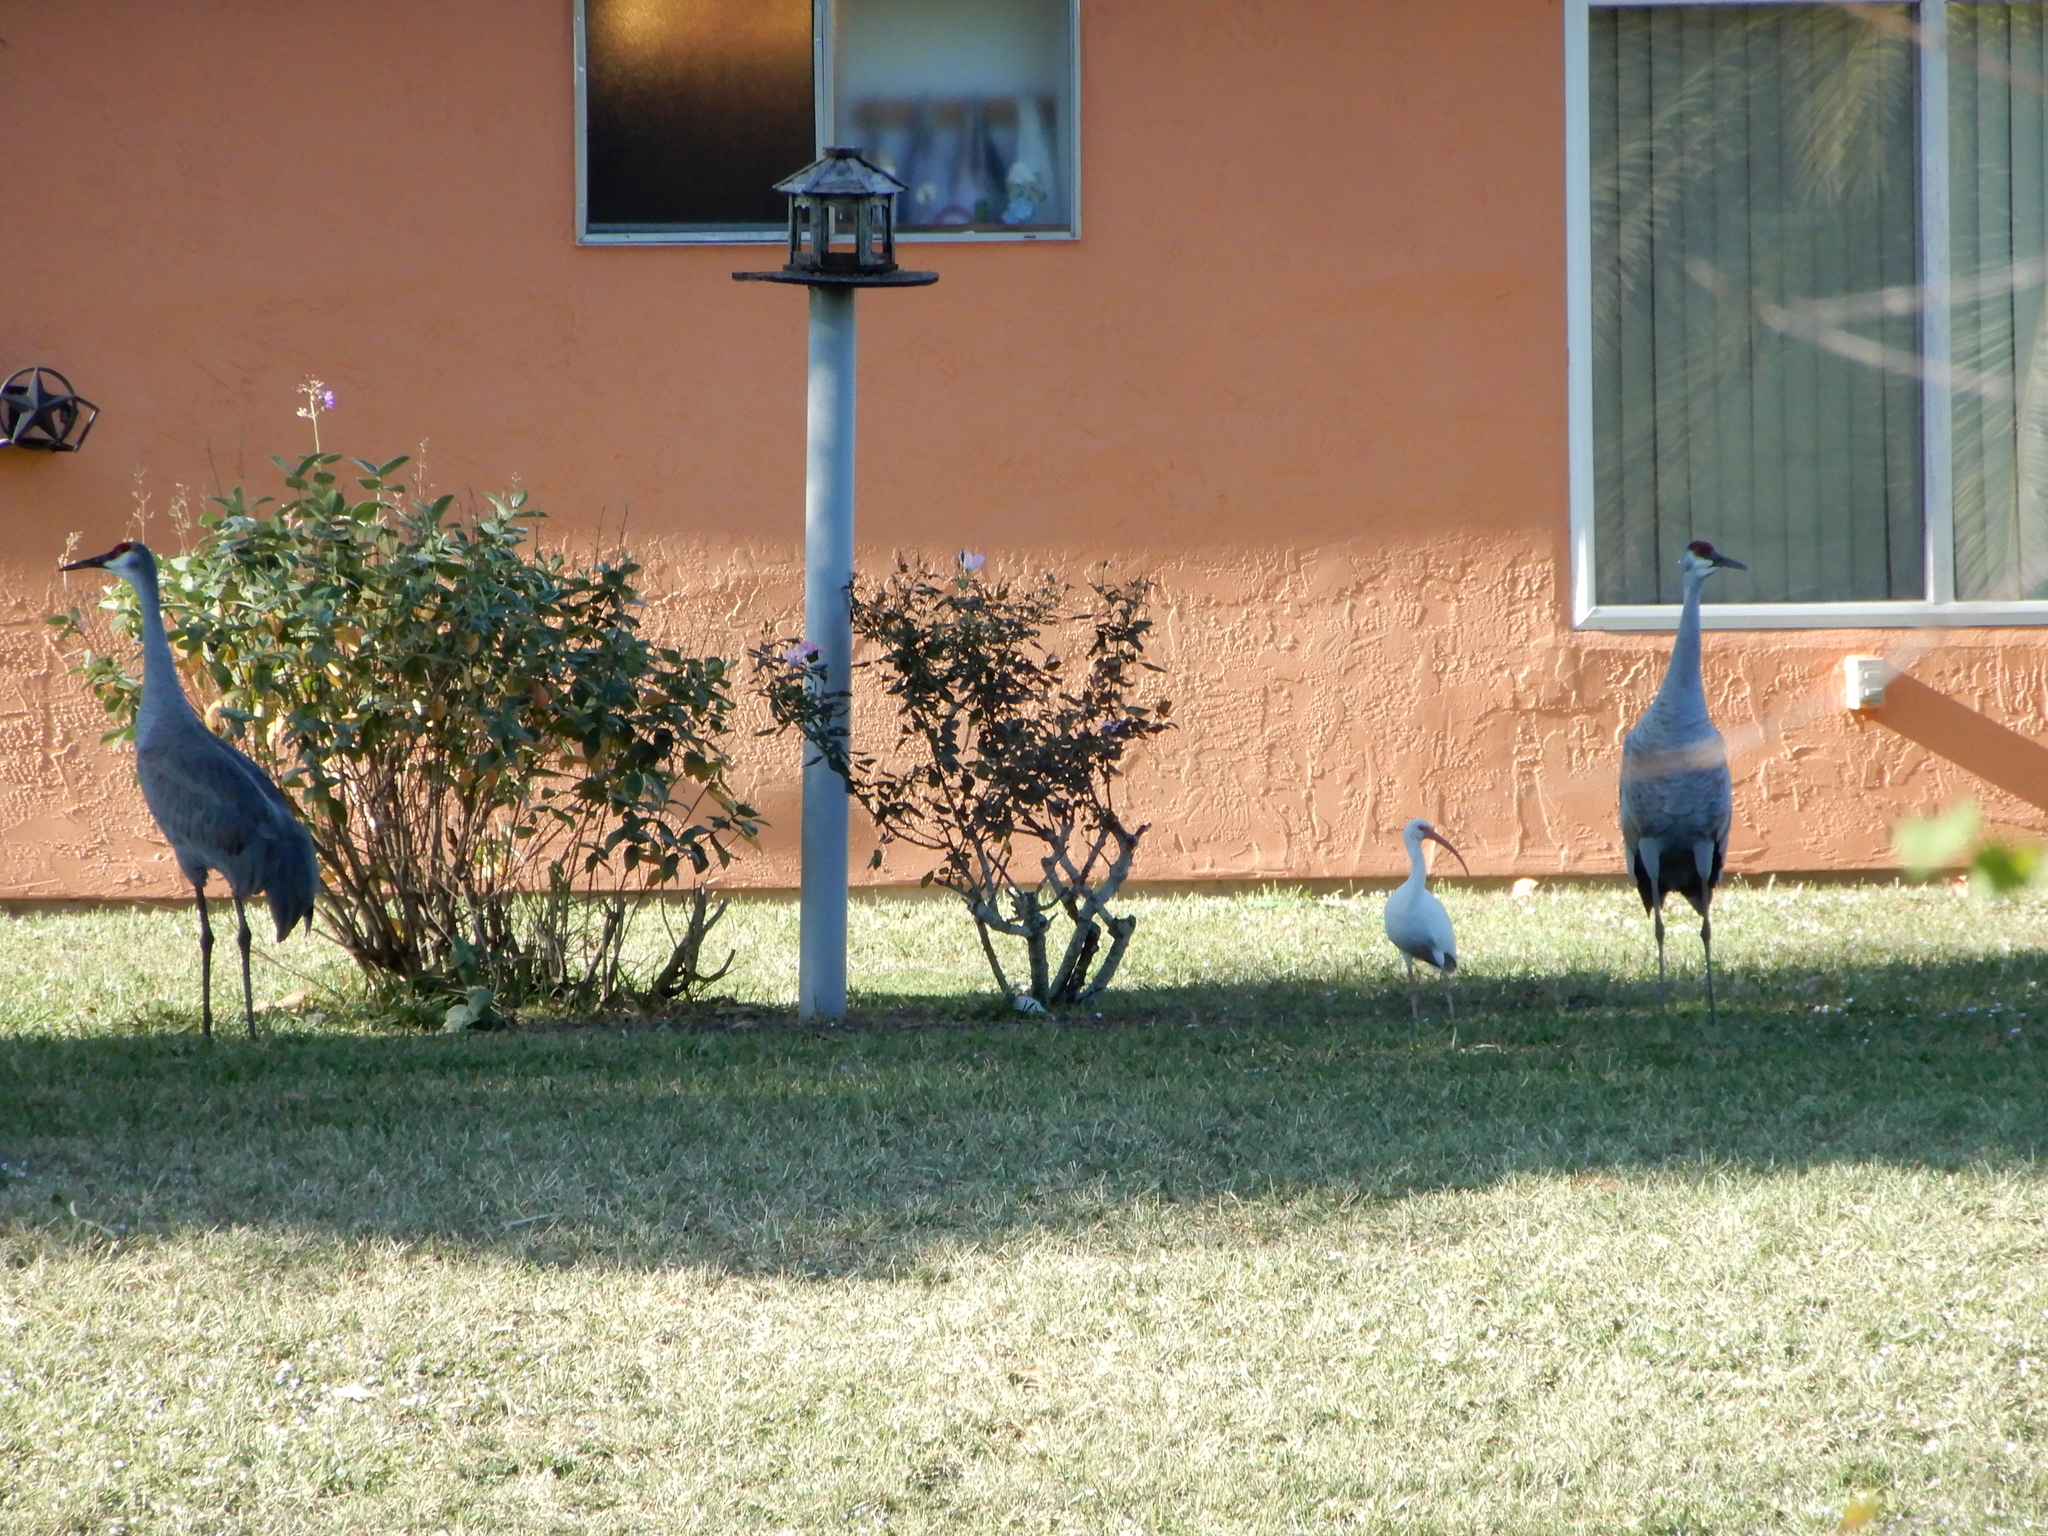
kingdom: Animalia
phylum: Chordata
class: Aves
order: Gruiformes
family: Gruidae
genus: Grus
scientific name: Grus canadensis
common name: Sandhill crane
